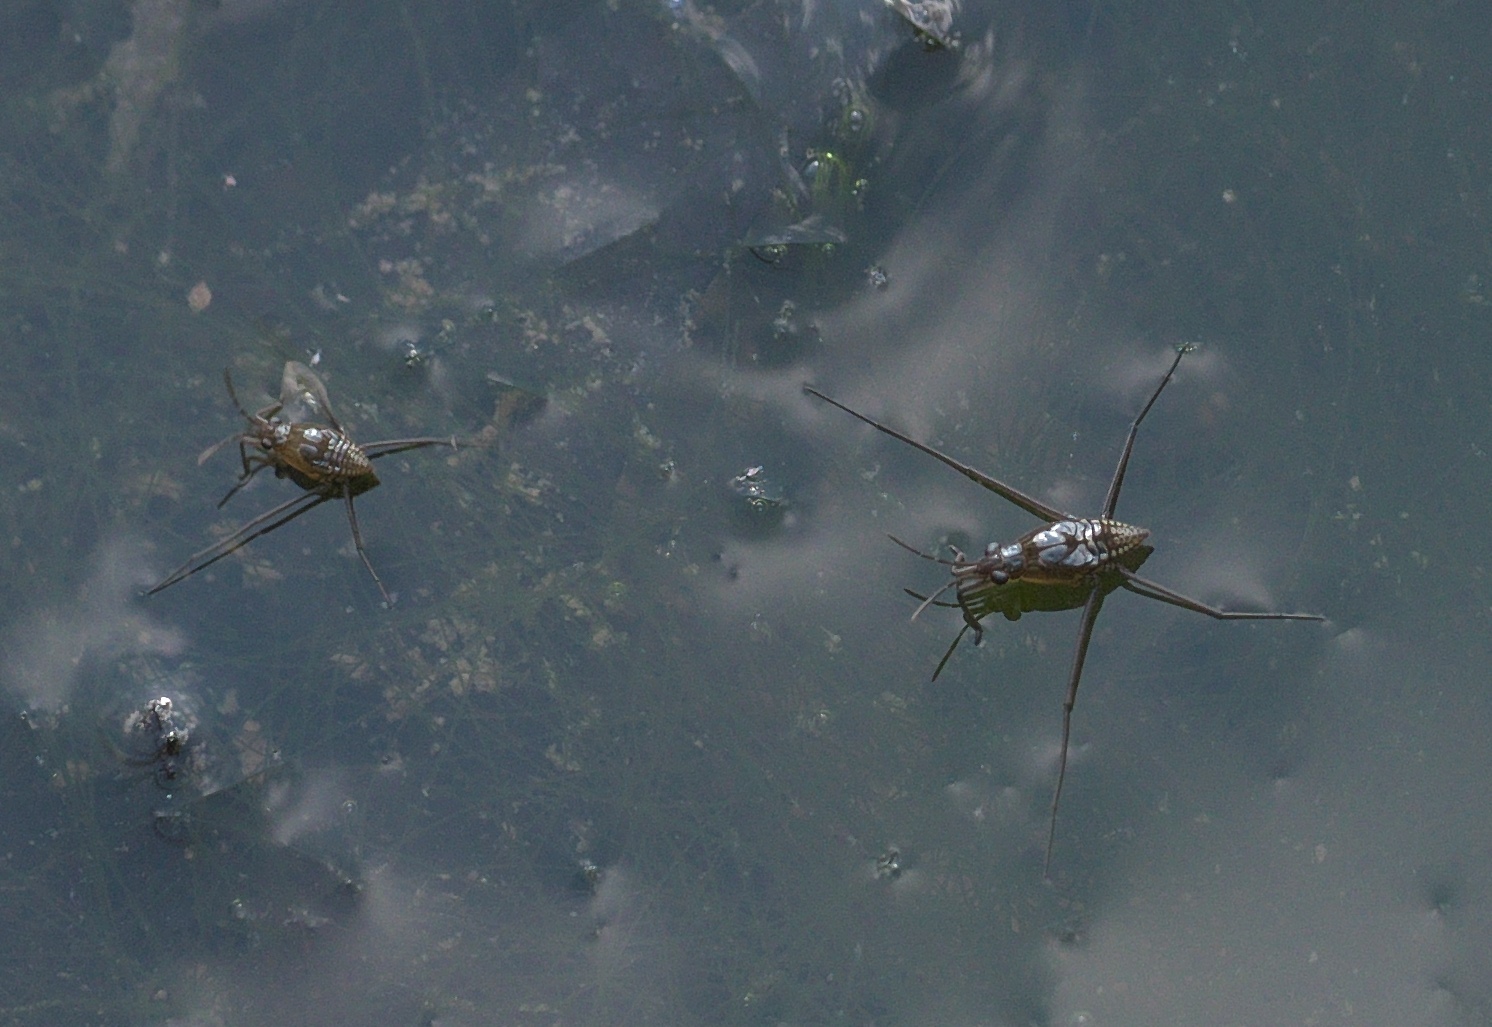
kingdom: Animalia
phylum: Arthropoda
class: Insecta
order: Hemiptera
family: Gerridae
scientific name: Gerridae
